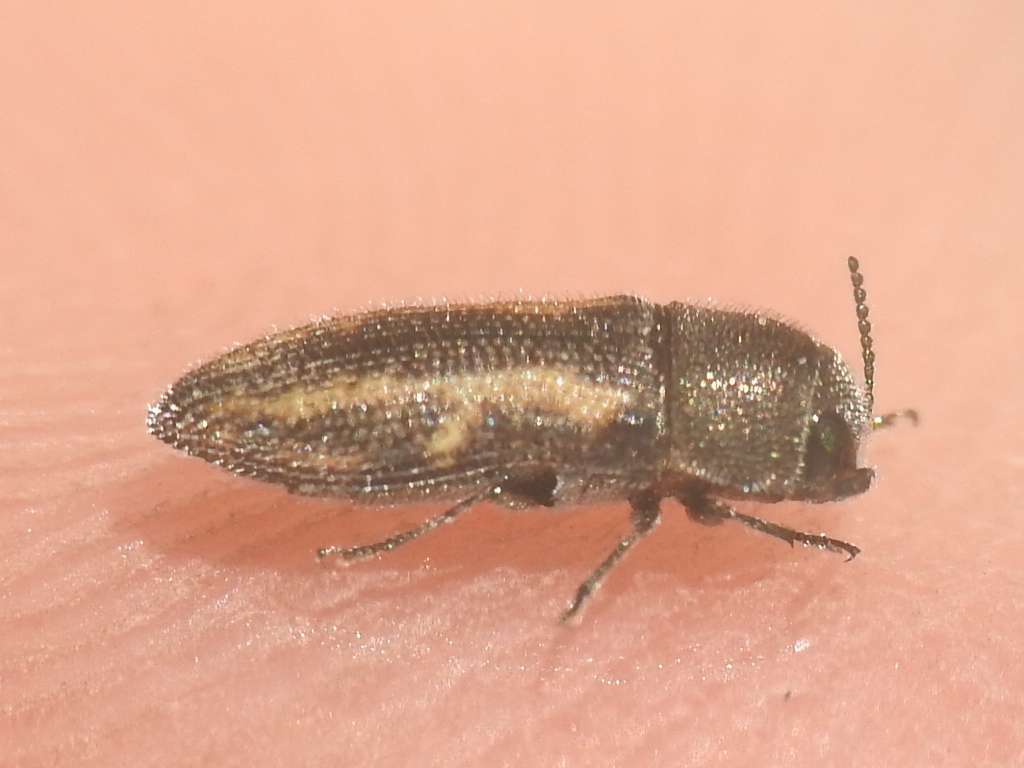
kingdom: Animalia
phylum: Arthropoda
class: Insecta
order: Coleoptera
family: Buprestidae
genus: Acmaeodera
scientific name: Acmaeodera neglecta
